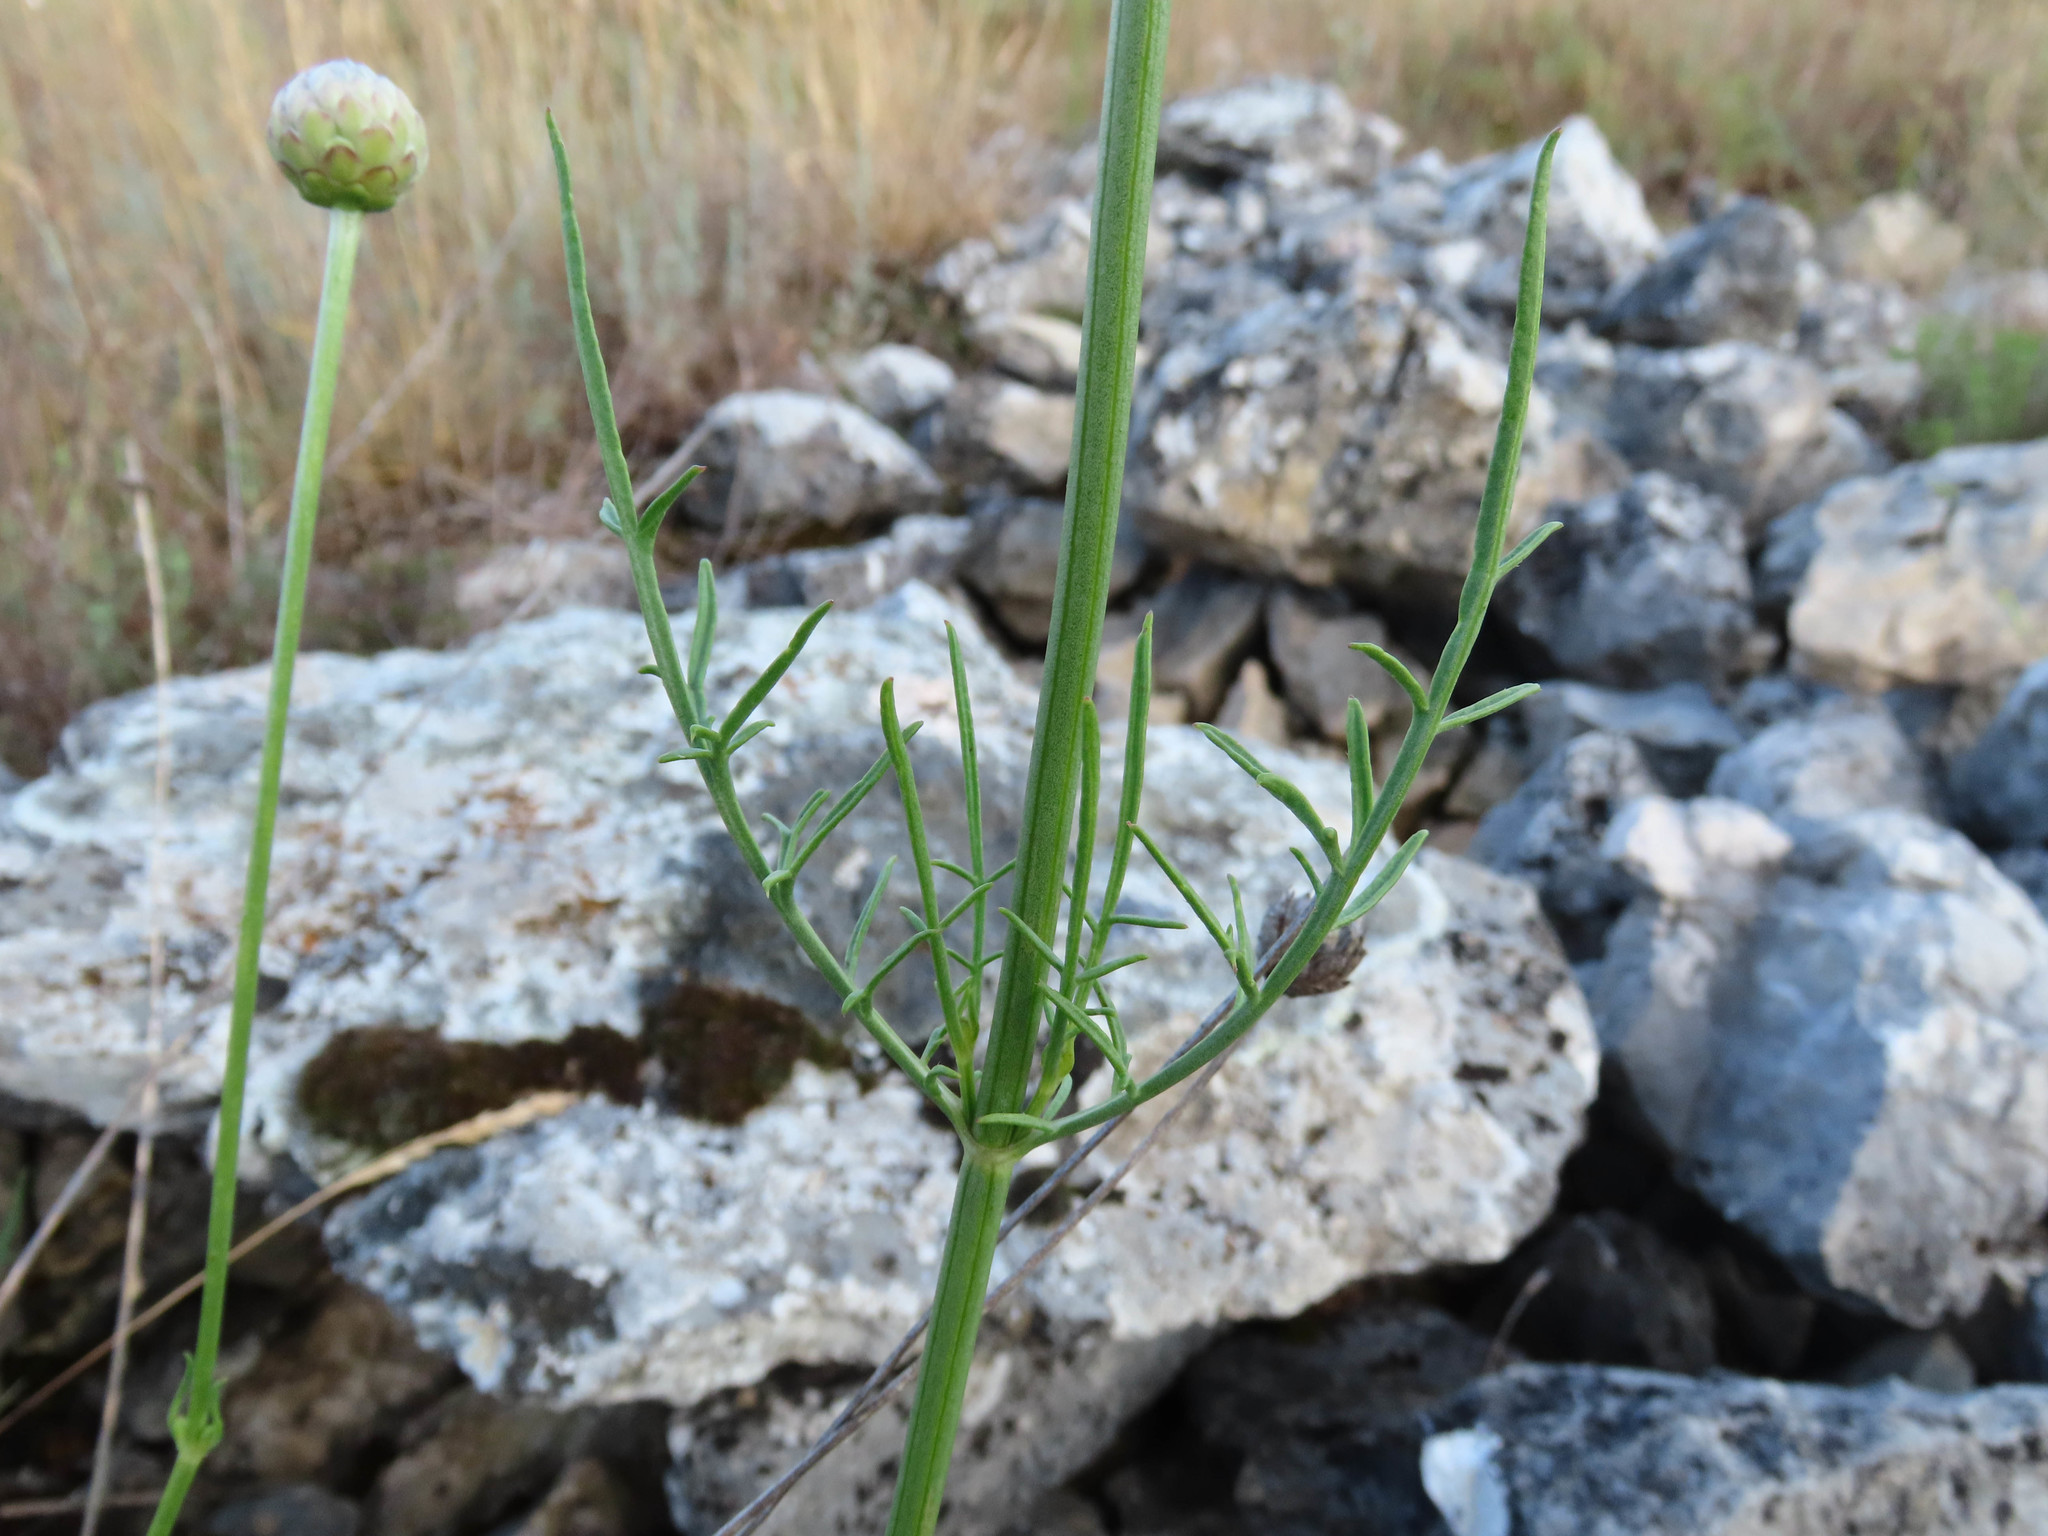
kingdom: Plantae
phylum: Tracheophyta
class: Magnoliopsida
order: Dipsacales
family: Caprifoliaceae
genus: Cephalaria
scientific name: Cephalaria leucantha
